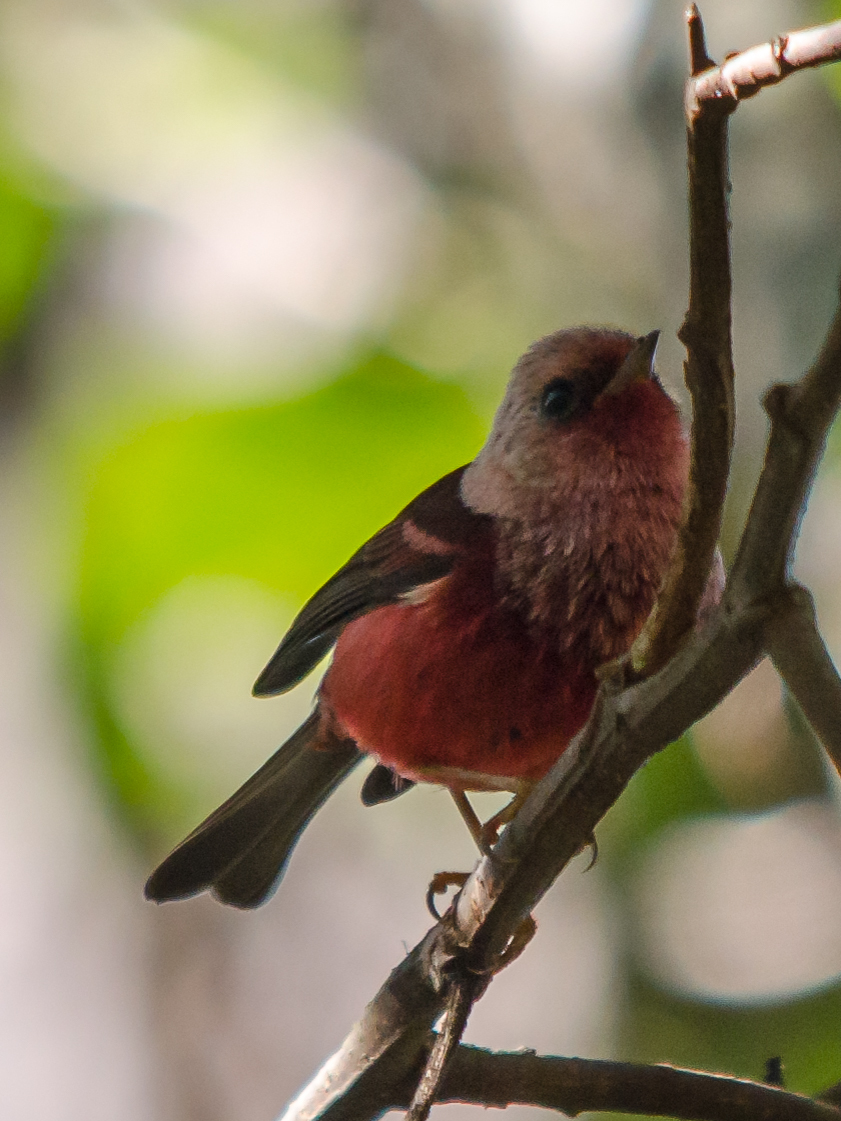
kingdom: Animalia
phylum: Chordata
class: Aves
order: Passeriformes
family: Parulidae
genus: Cardellina
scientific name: Cardellina versicolor
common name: Pink-headed warbler
